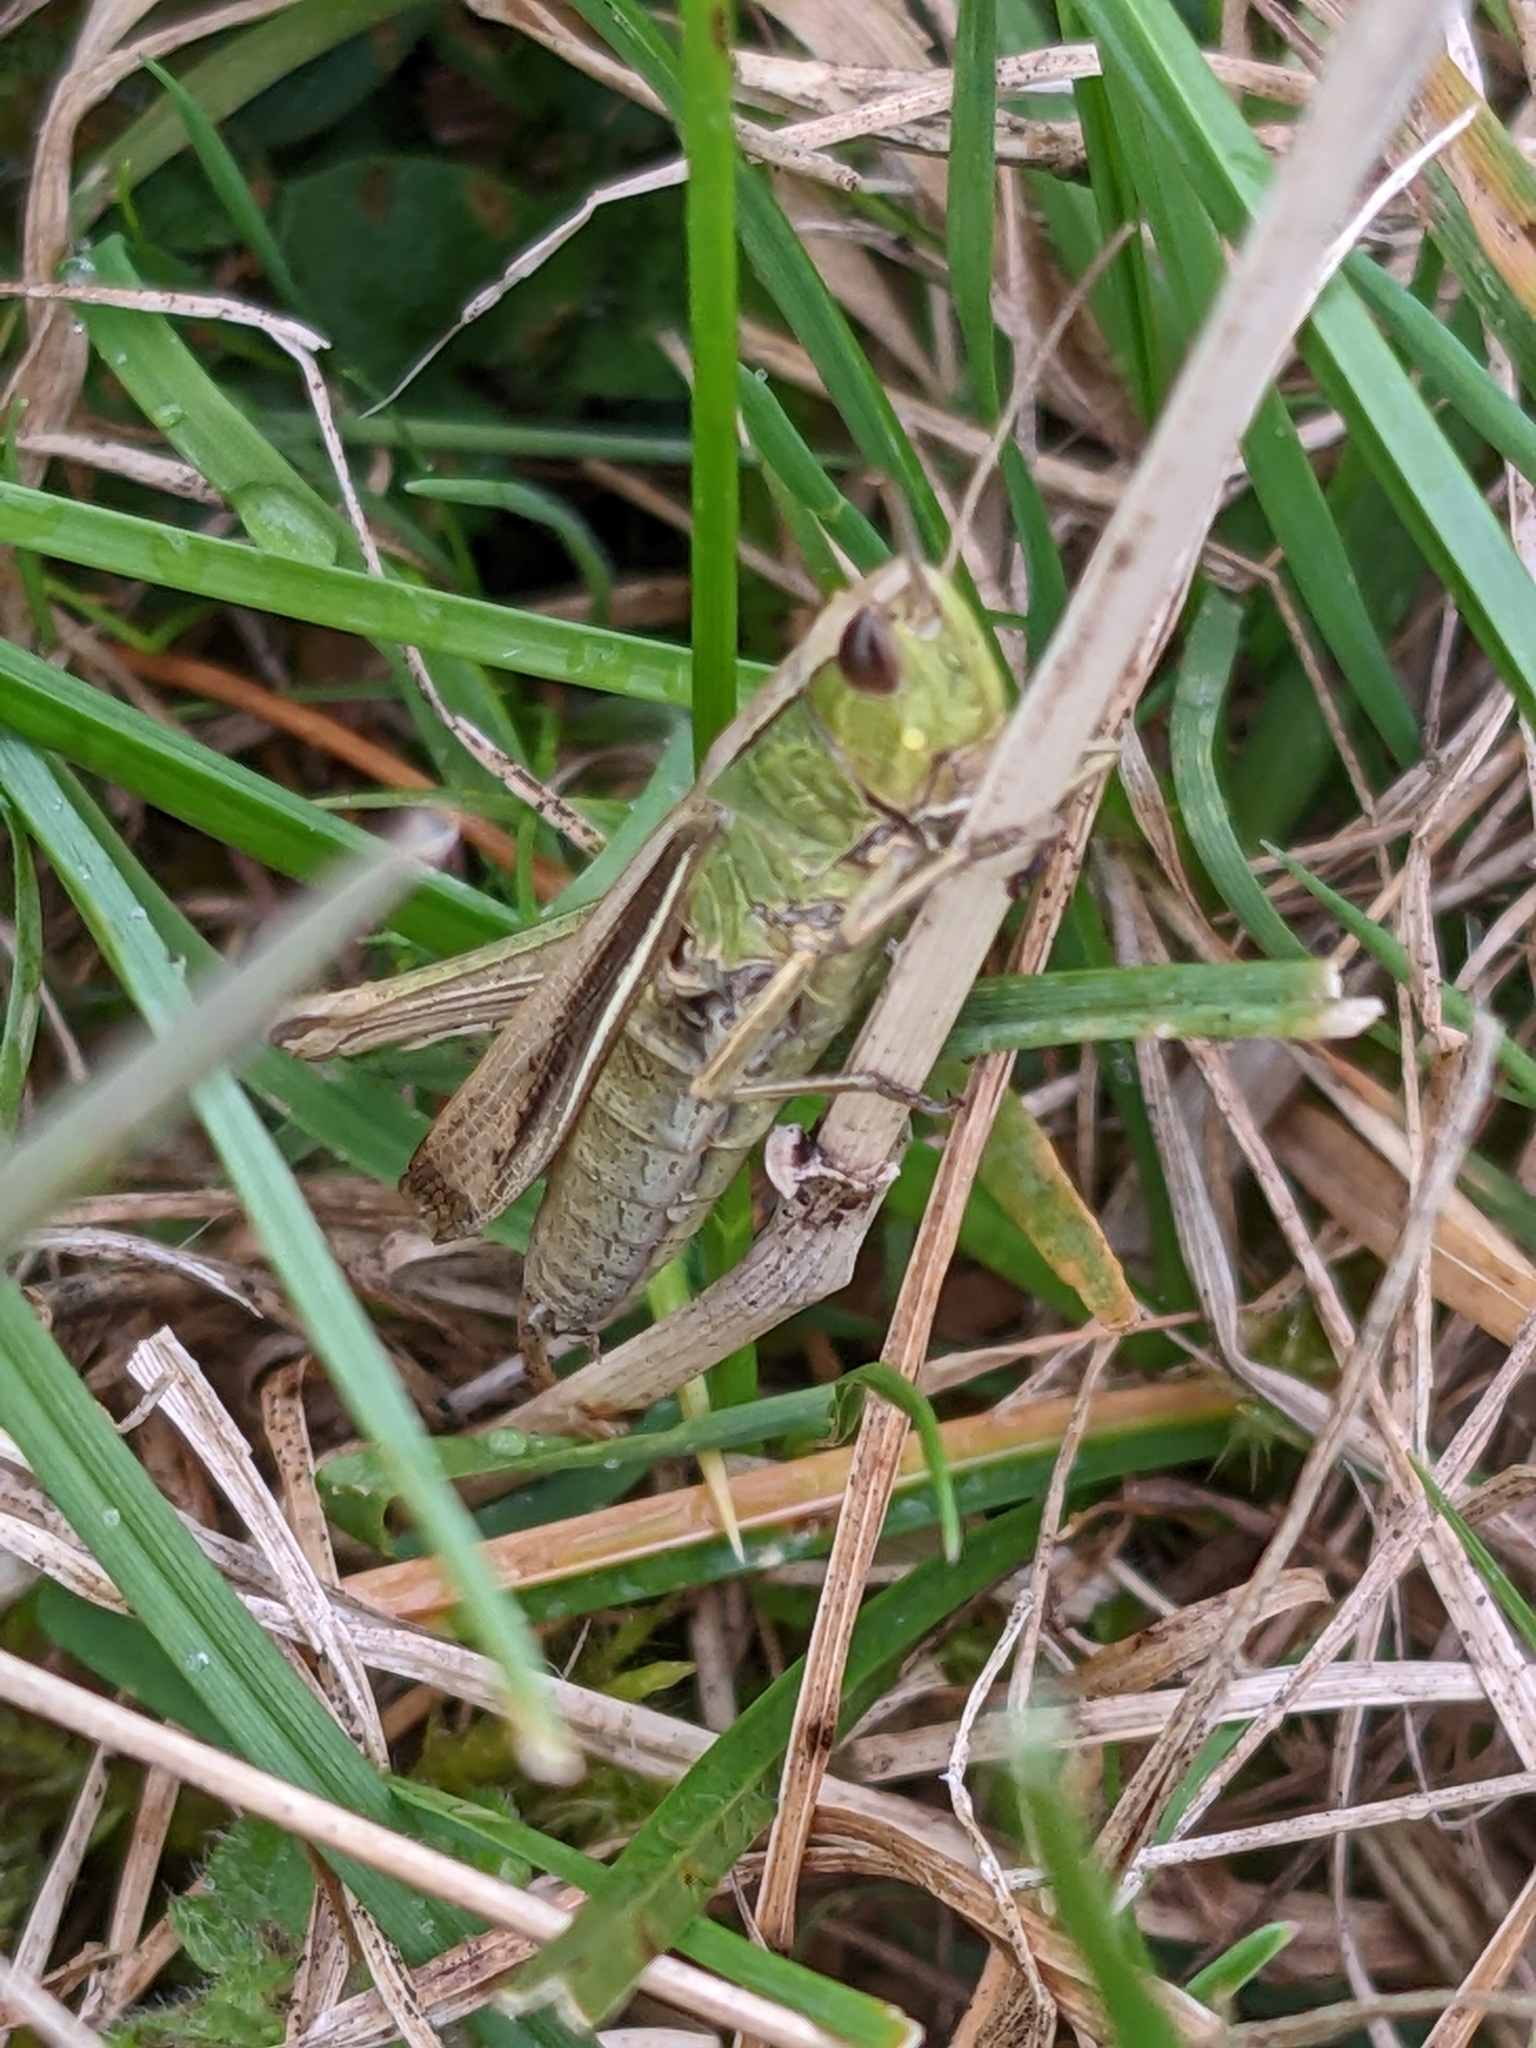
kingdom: Animalia
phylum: Arthropoda
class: Insecta
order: Orthoptera
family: Acrididae
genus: Chorthippus
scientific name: Chorthippus albomarginatus
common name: Lesser marsh grasshopper
